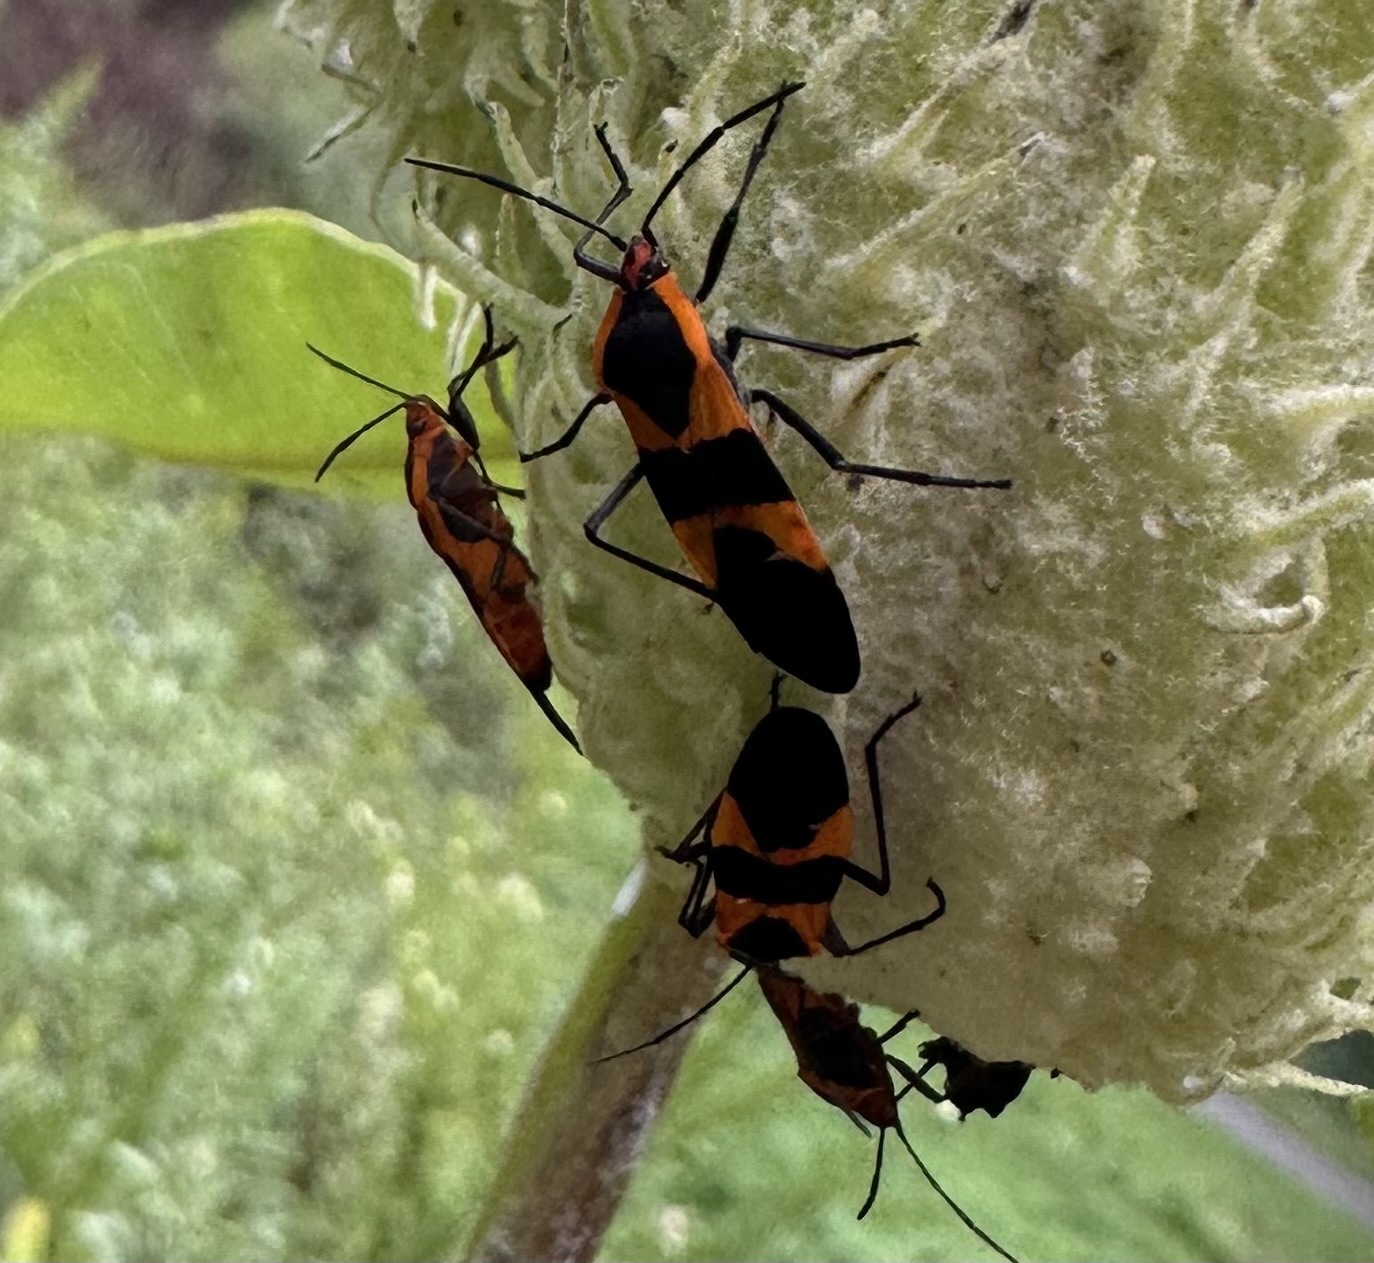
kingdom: Animalia
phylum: Arthropoda
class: Insecta
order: Hemiptera
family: Lygaeidae
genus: Oncopeltus
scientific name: Oncopeltus fasciatus
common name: Large milkweed bug
